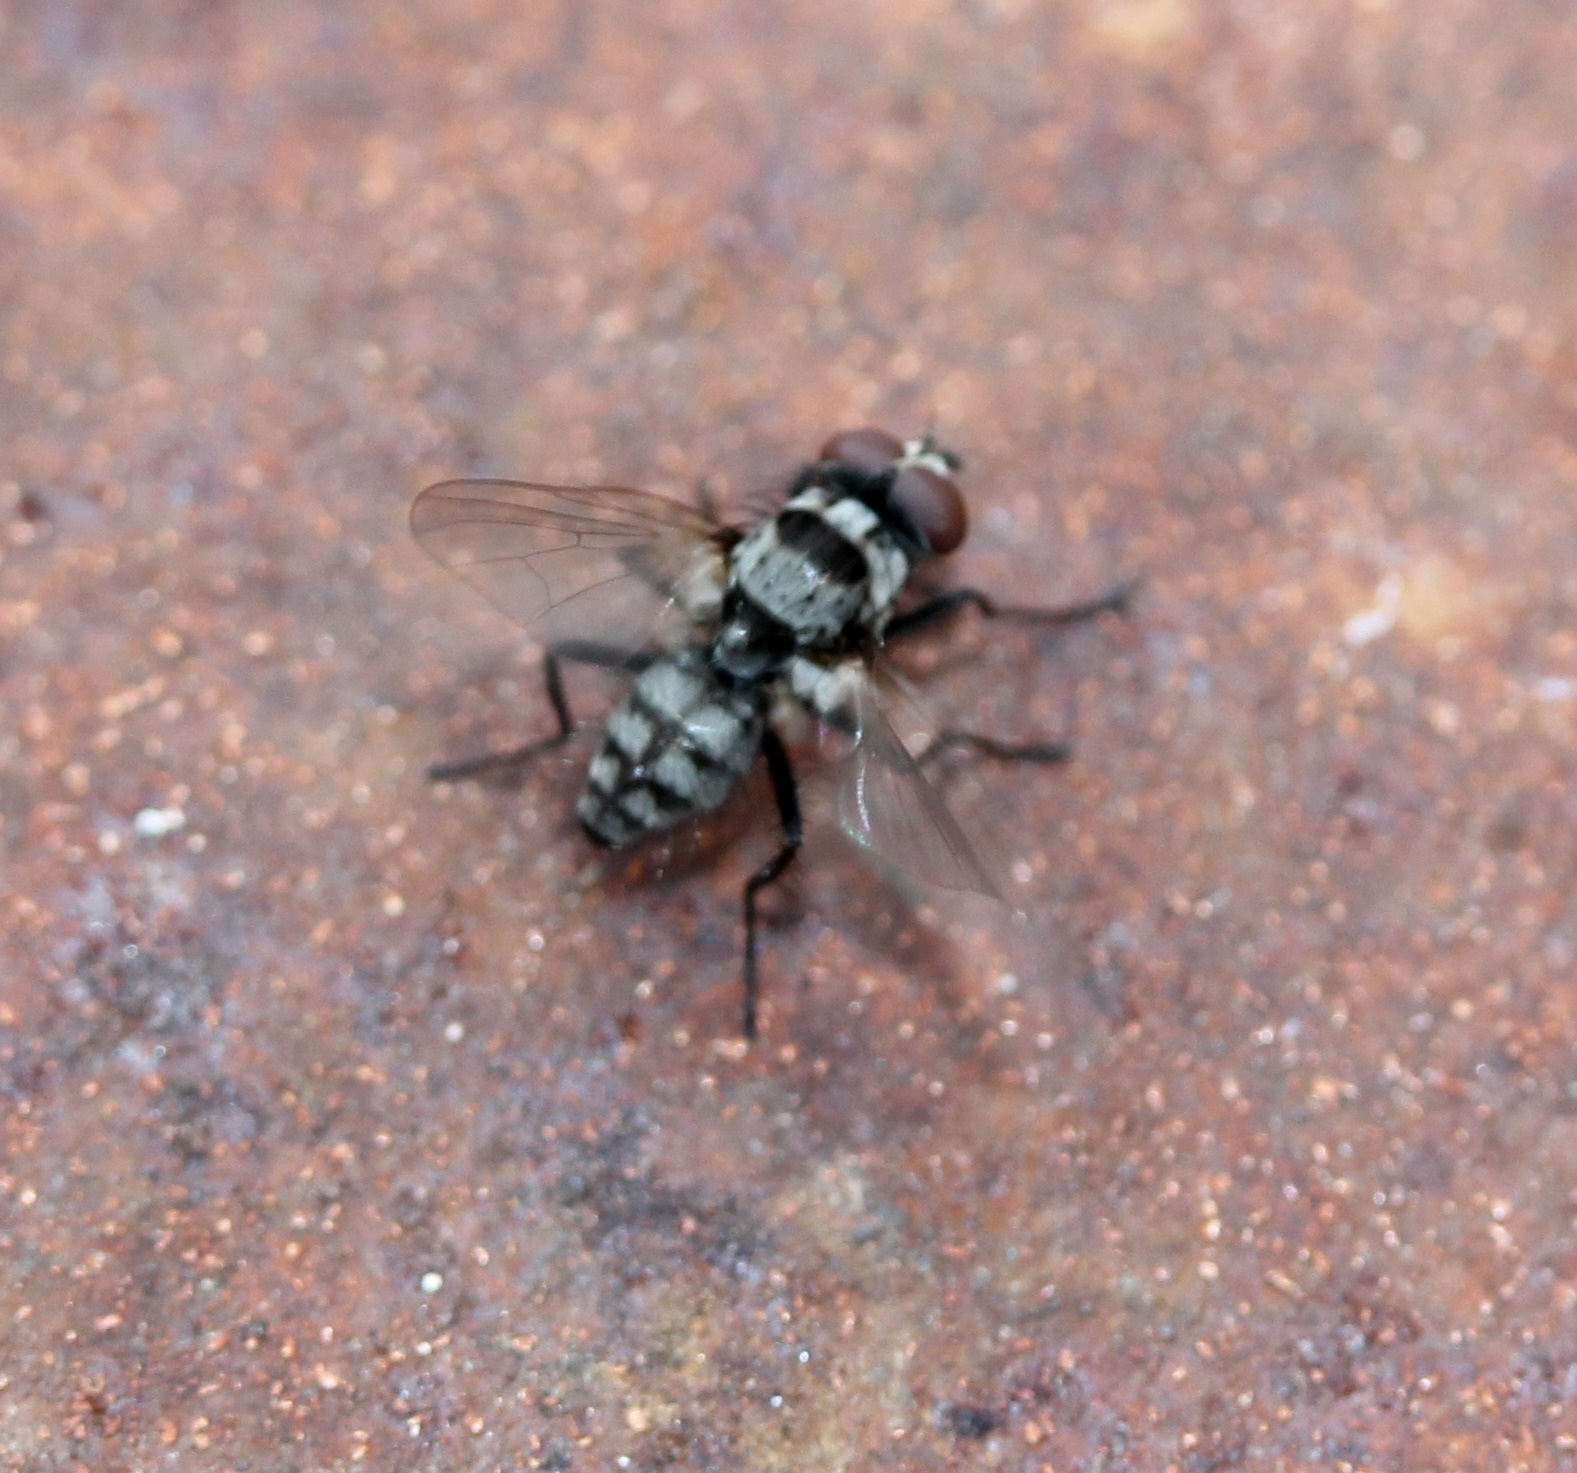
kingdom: Animalia
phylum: Arthropoda
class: Insecta
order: Diptera
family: Anthomyiidae
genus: Anthomyia
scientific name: Anthomyia oculifera
